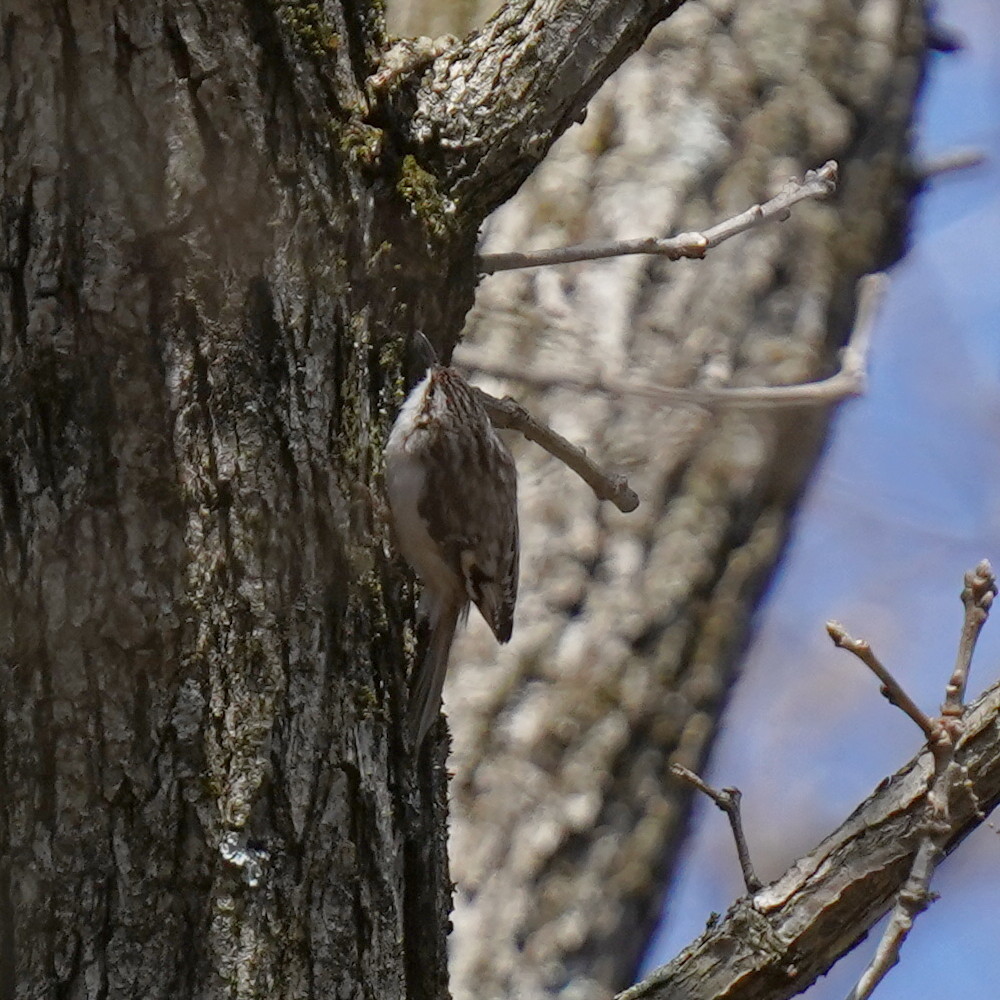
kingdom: Animalia
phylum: Chordata
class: Aves
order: Passeriformes
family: Certhiidae
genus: Certhia
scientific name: Certhia americana
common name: Brown creeper
